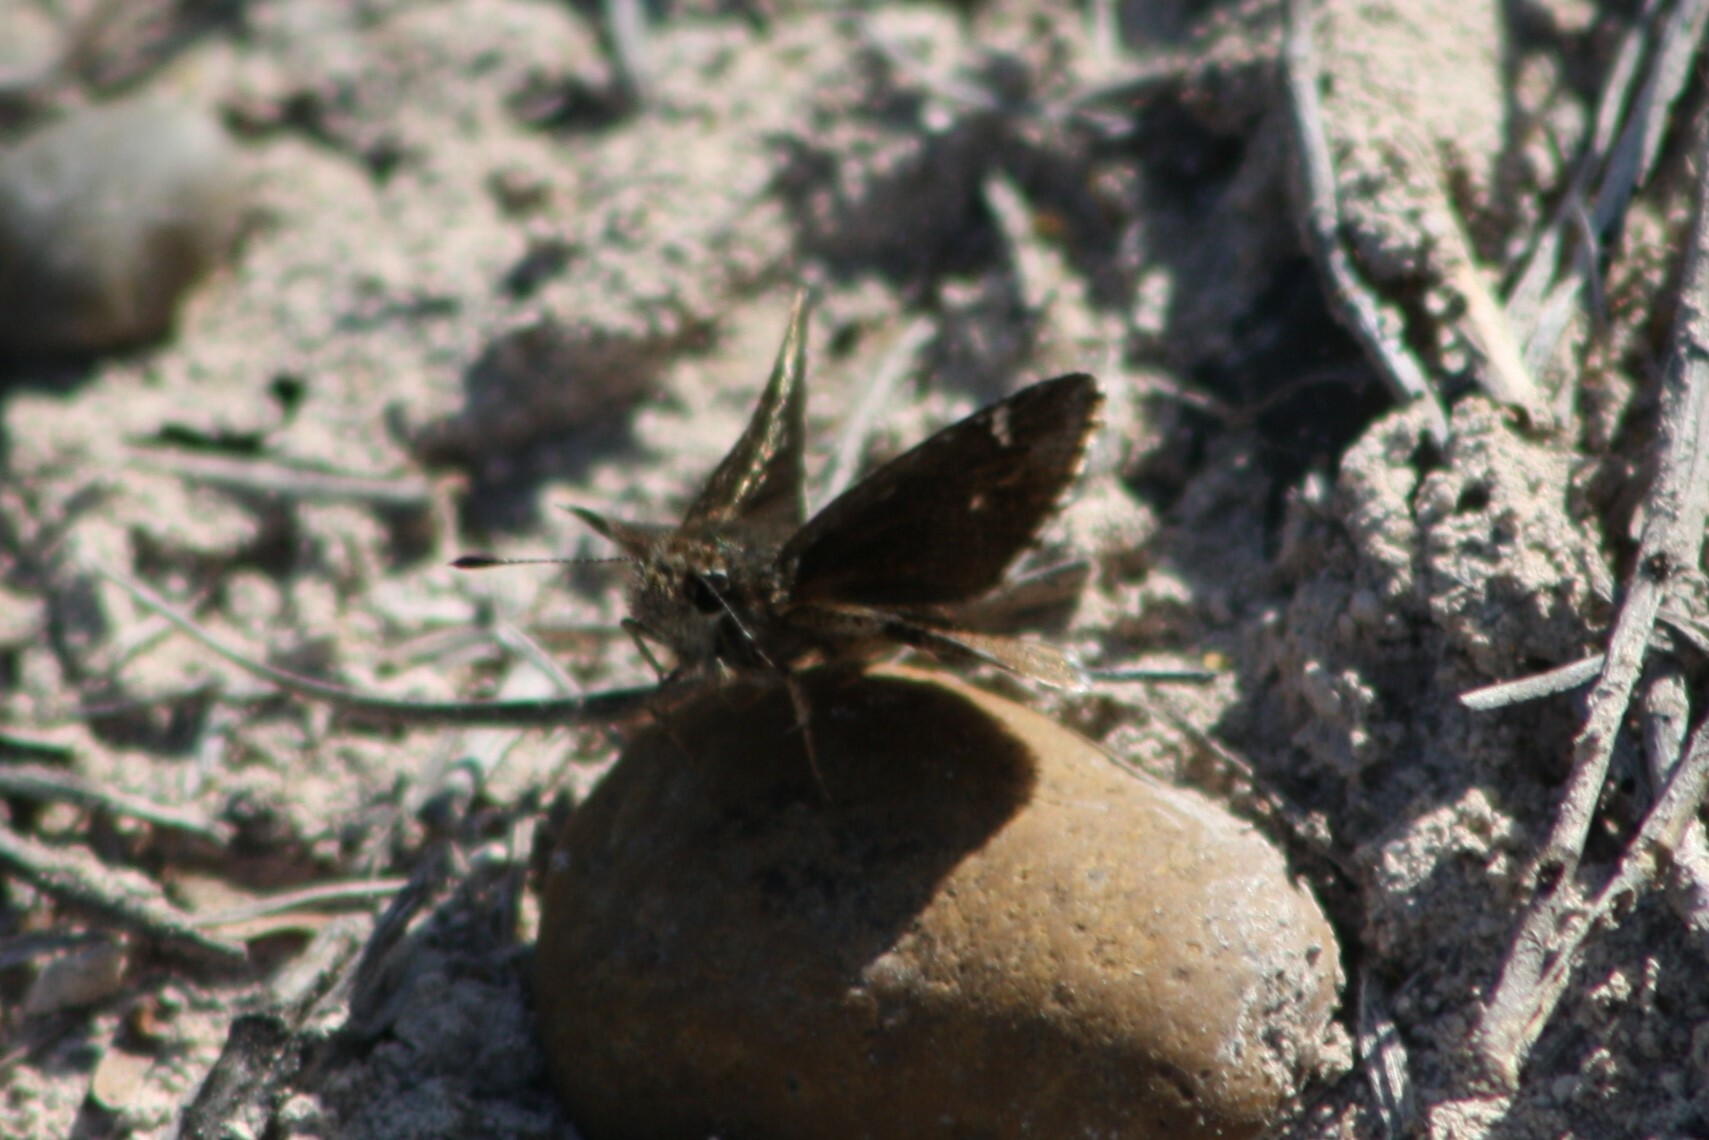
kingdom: Animalia
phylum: Arthropoda
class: Insecta
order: Lepidoptera
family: Hesperiidae
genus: Mastor
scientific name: Mastor nysa
